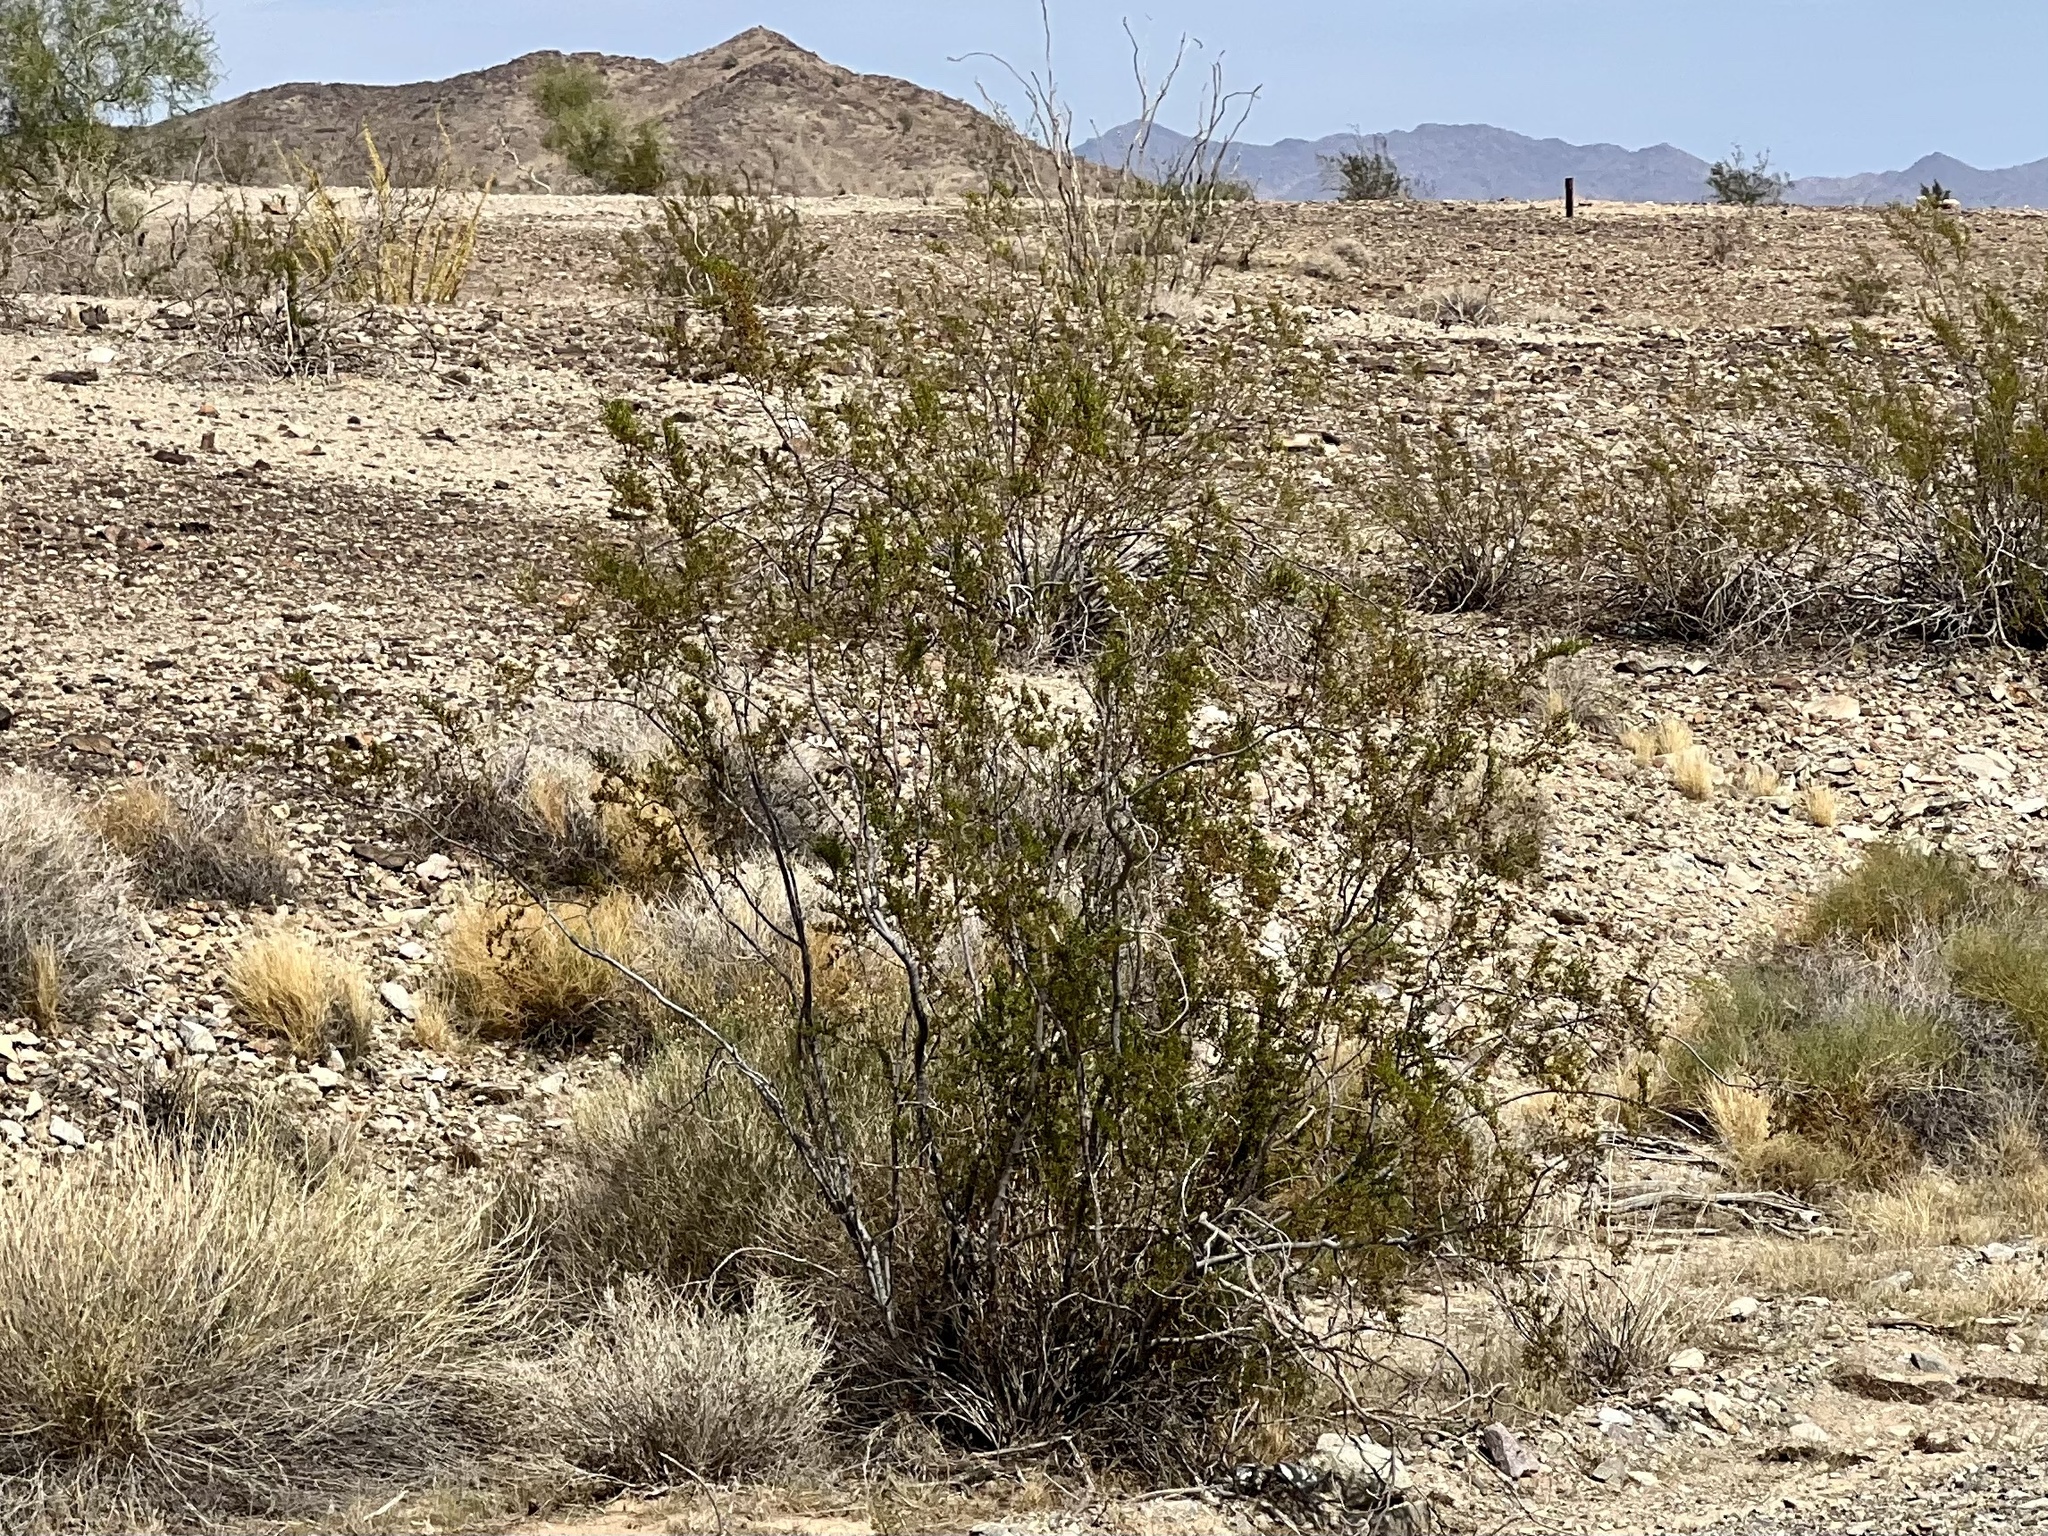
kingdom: Plantae
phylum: Tracheophyta
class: Magnoliopsida
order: Zygophyllales
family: Zygophyllaceae
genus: Larrea
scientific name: Larrea tridentata
